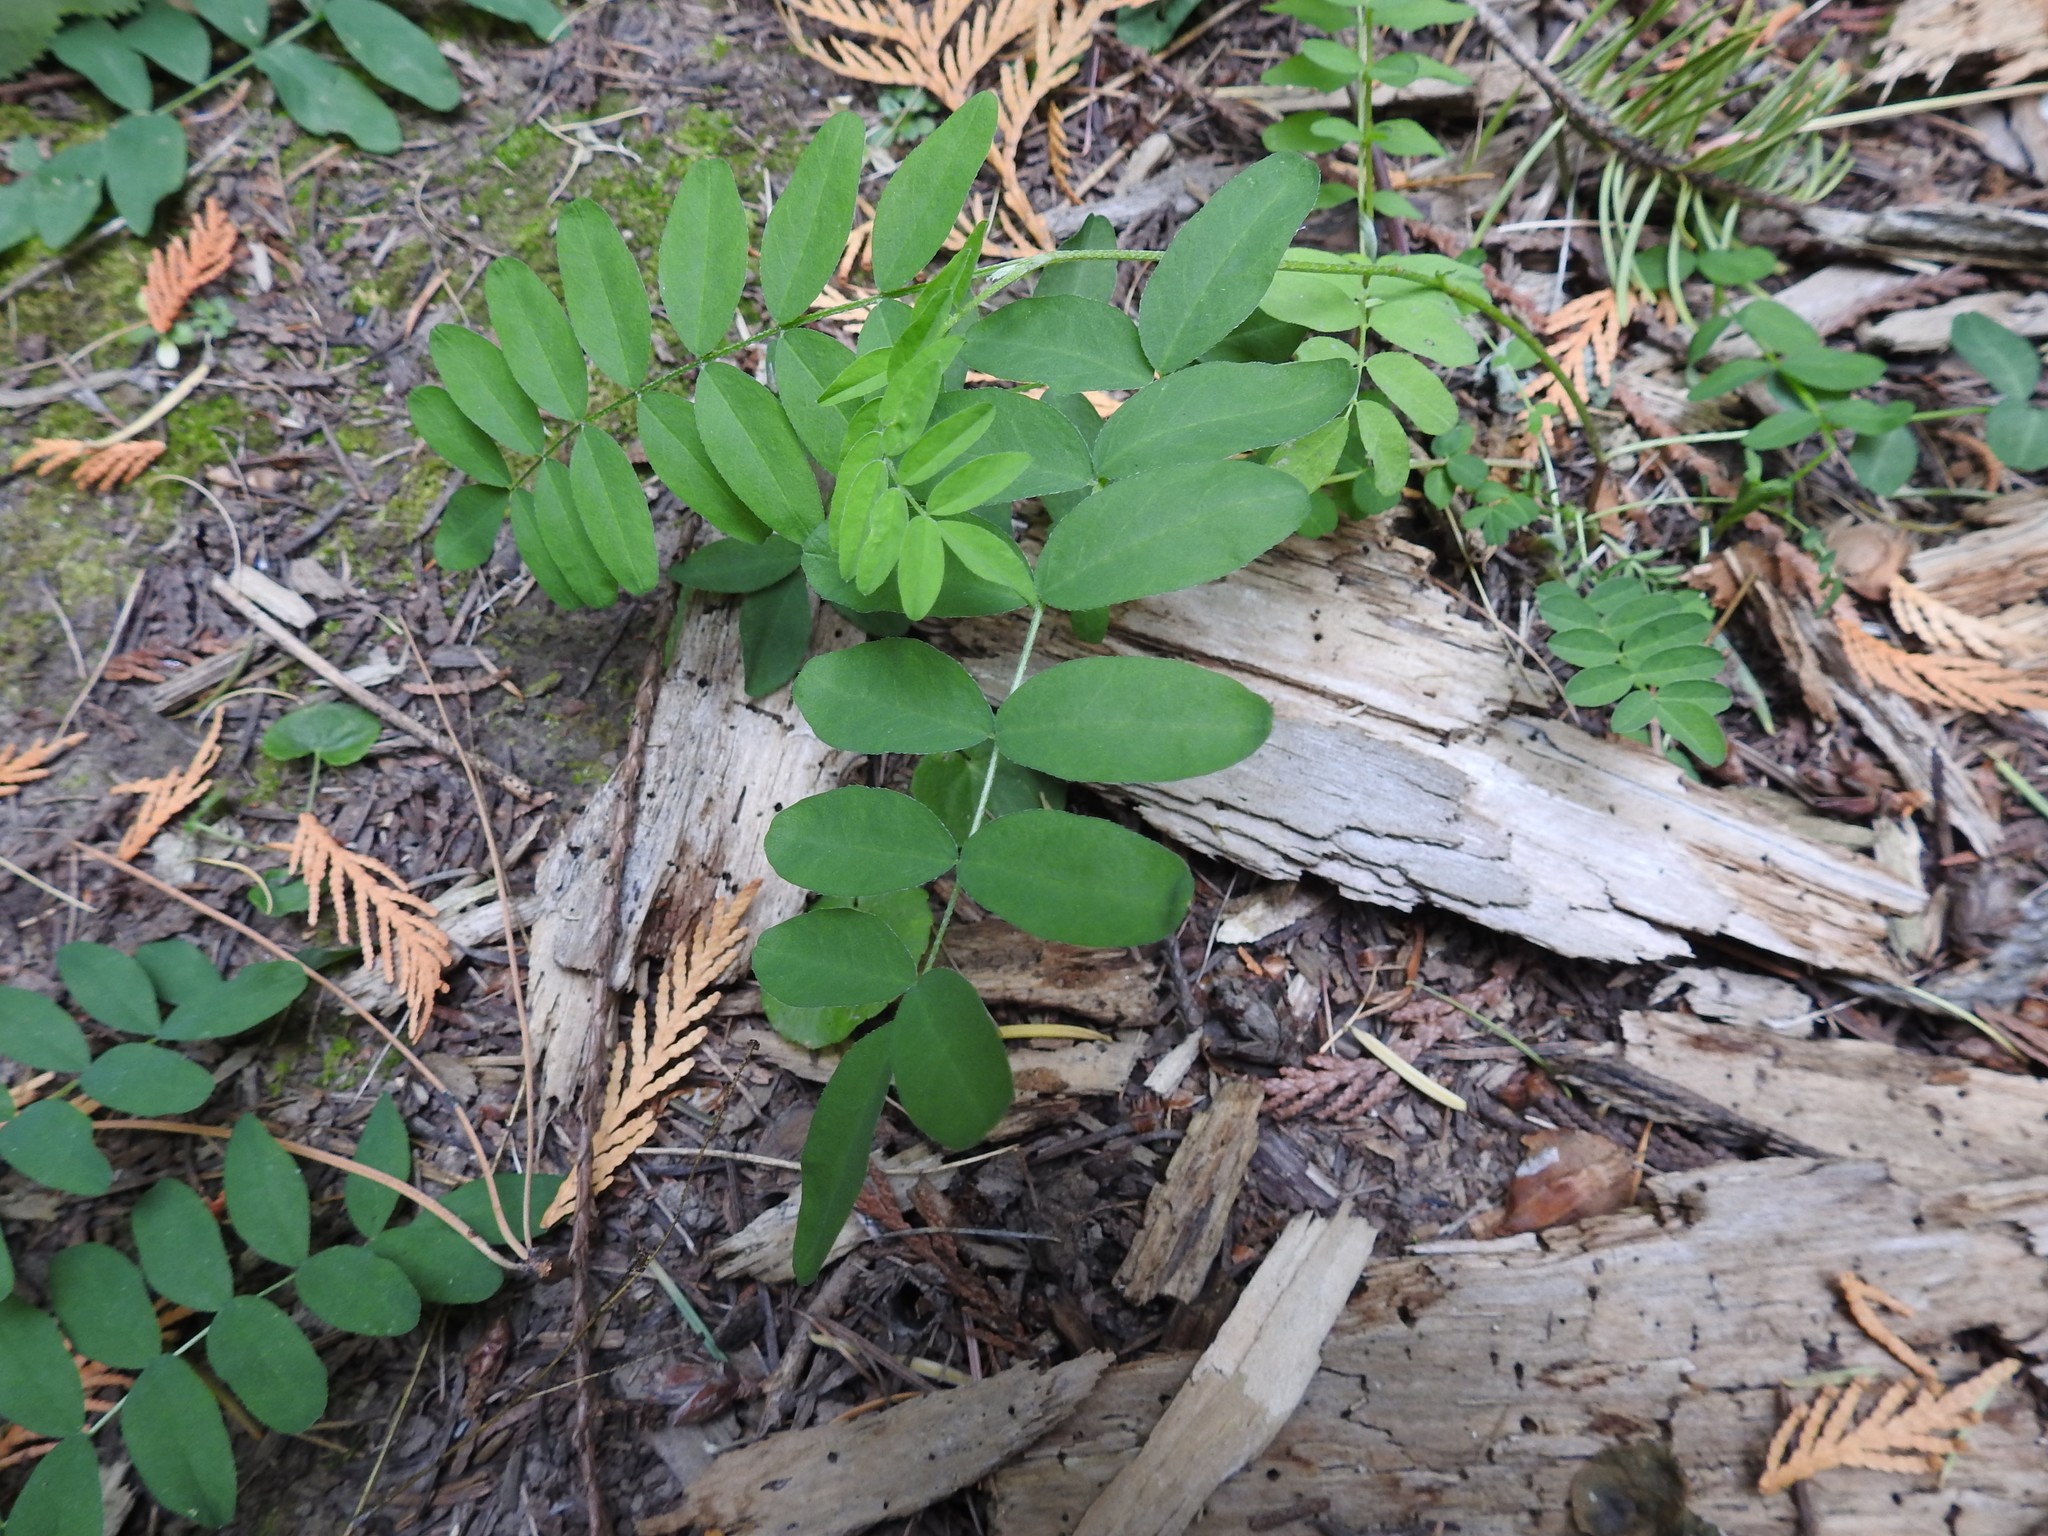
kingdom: Plantae
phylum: Tracheophyta
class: Magnoliopsida
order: Fabales
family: Fabaceae
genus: Astragalus
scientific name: Astragalus canadensis
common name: Canada milk-vetch
